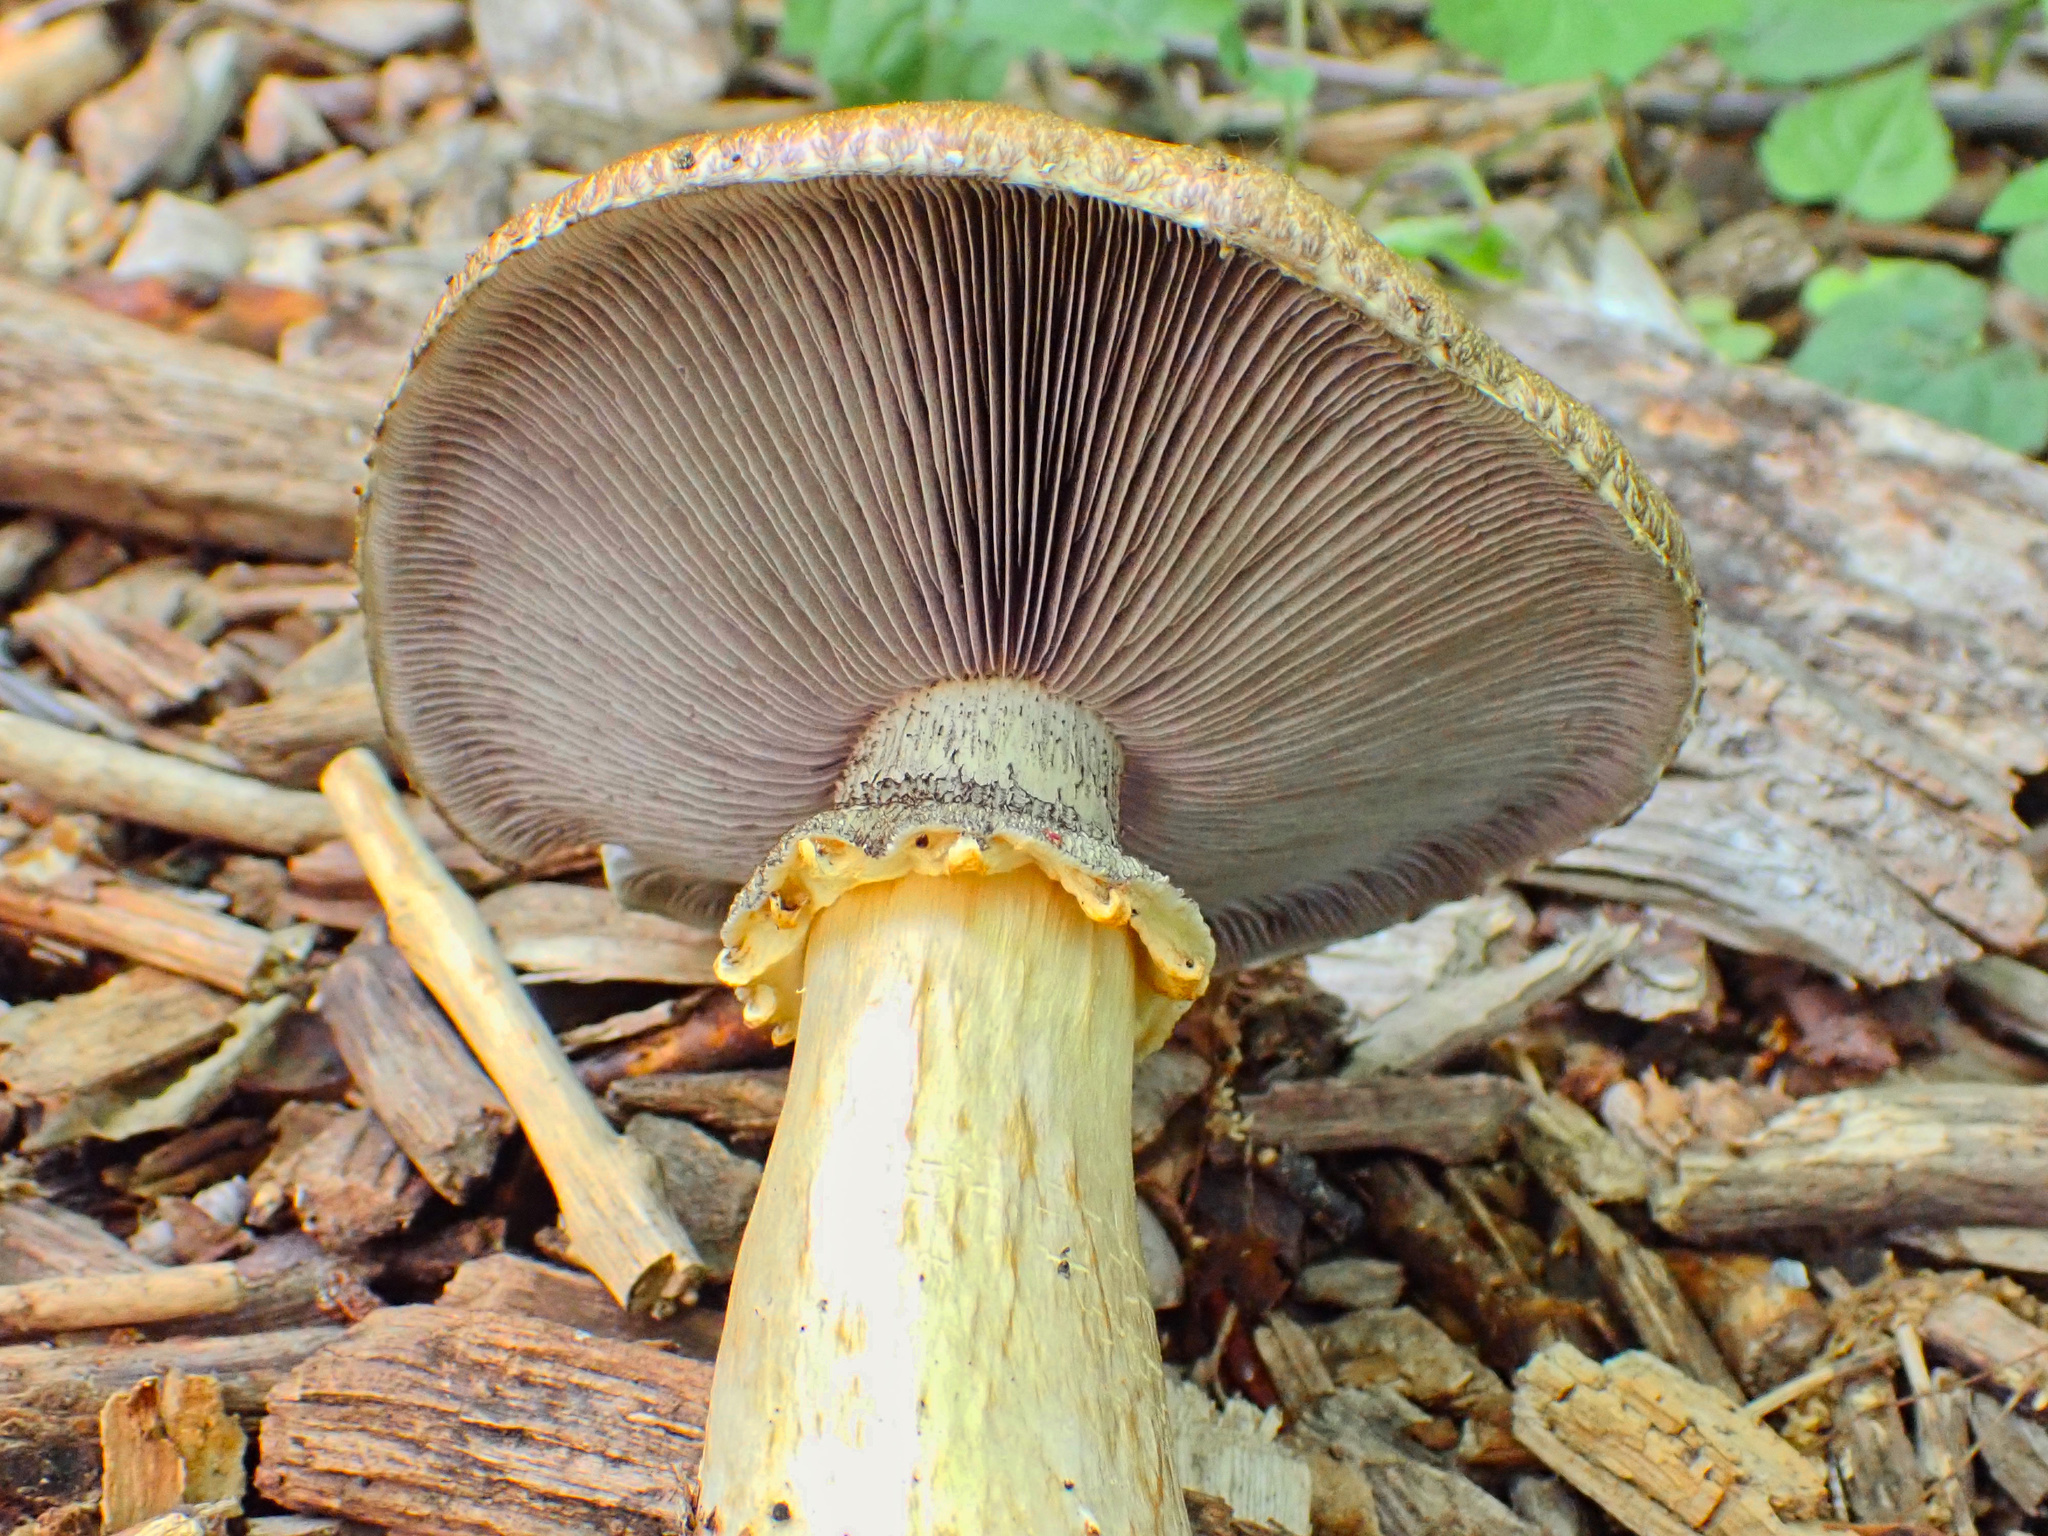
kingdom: Fungi
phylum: Basidiomycota
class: Agaricomycetes
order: Agaricales
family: Strophariaceae
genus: Stropharia
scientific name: Stropharia rugosoannulata
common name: Wine roundhead
